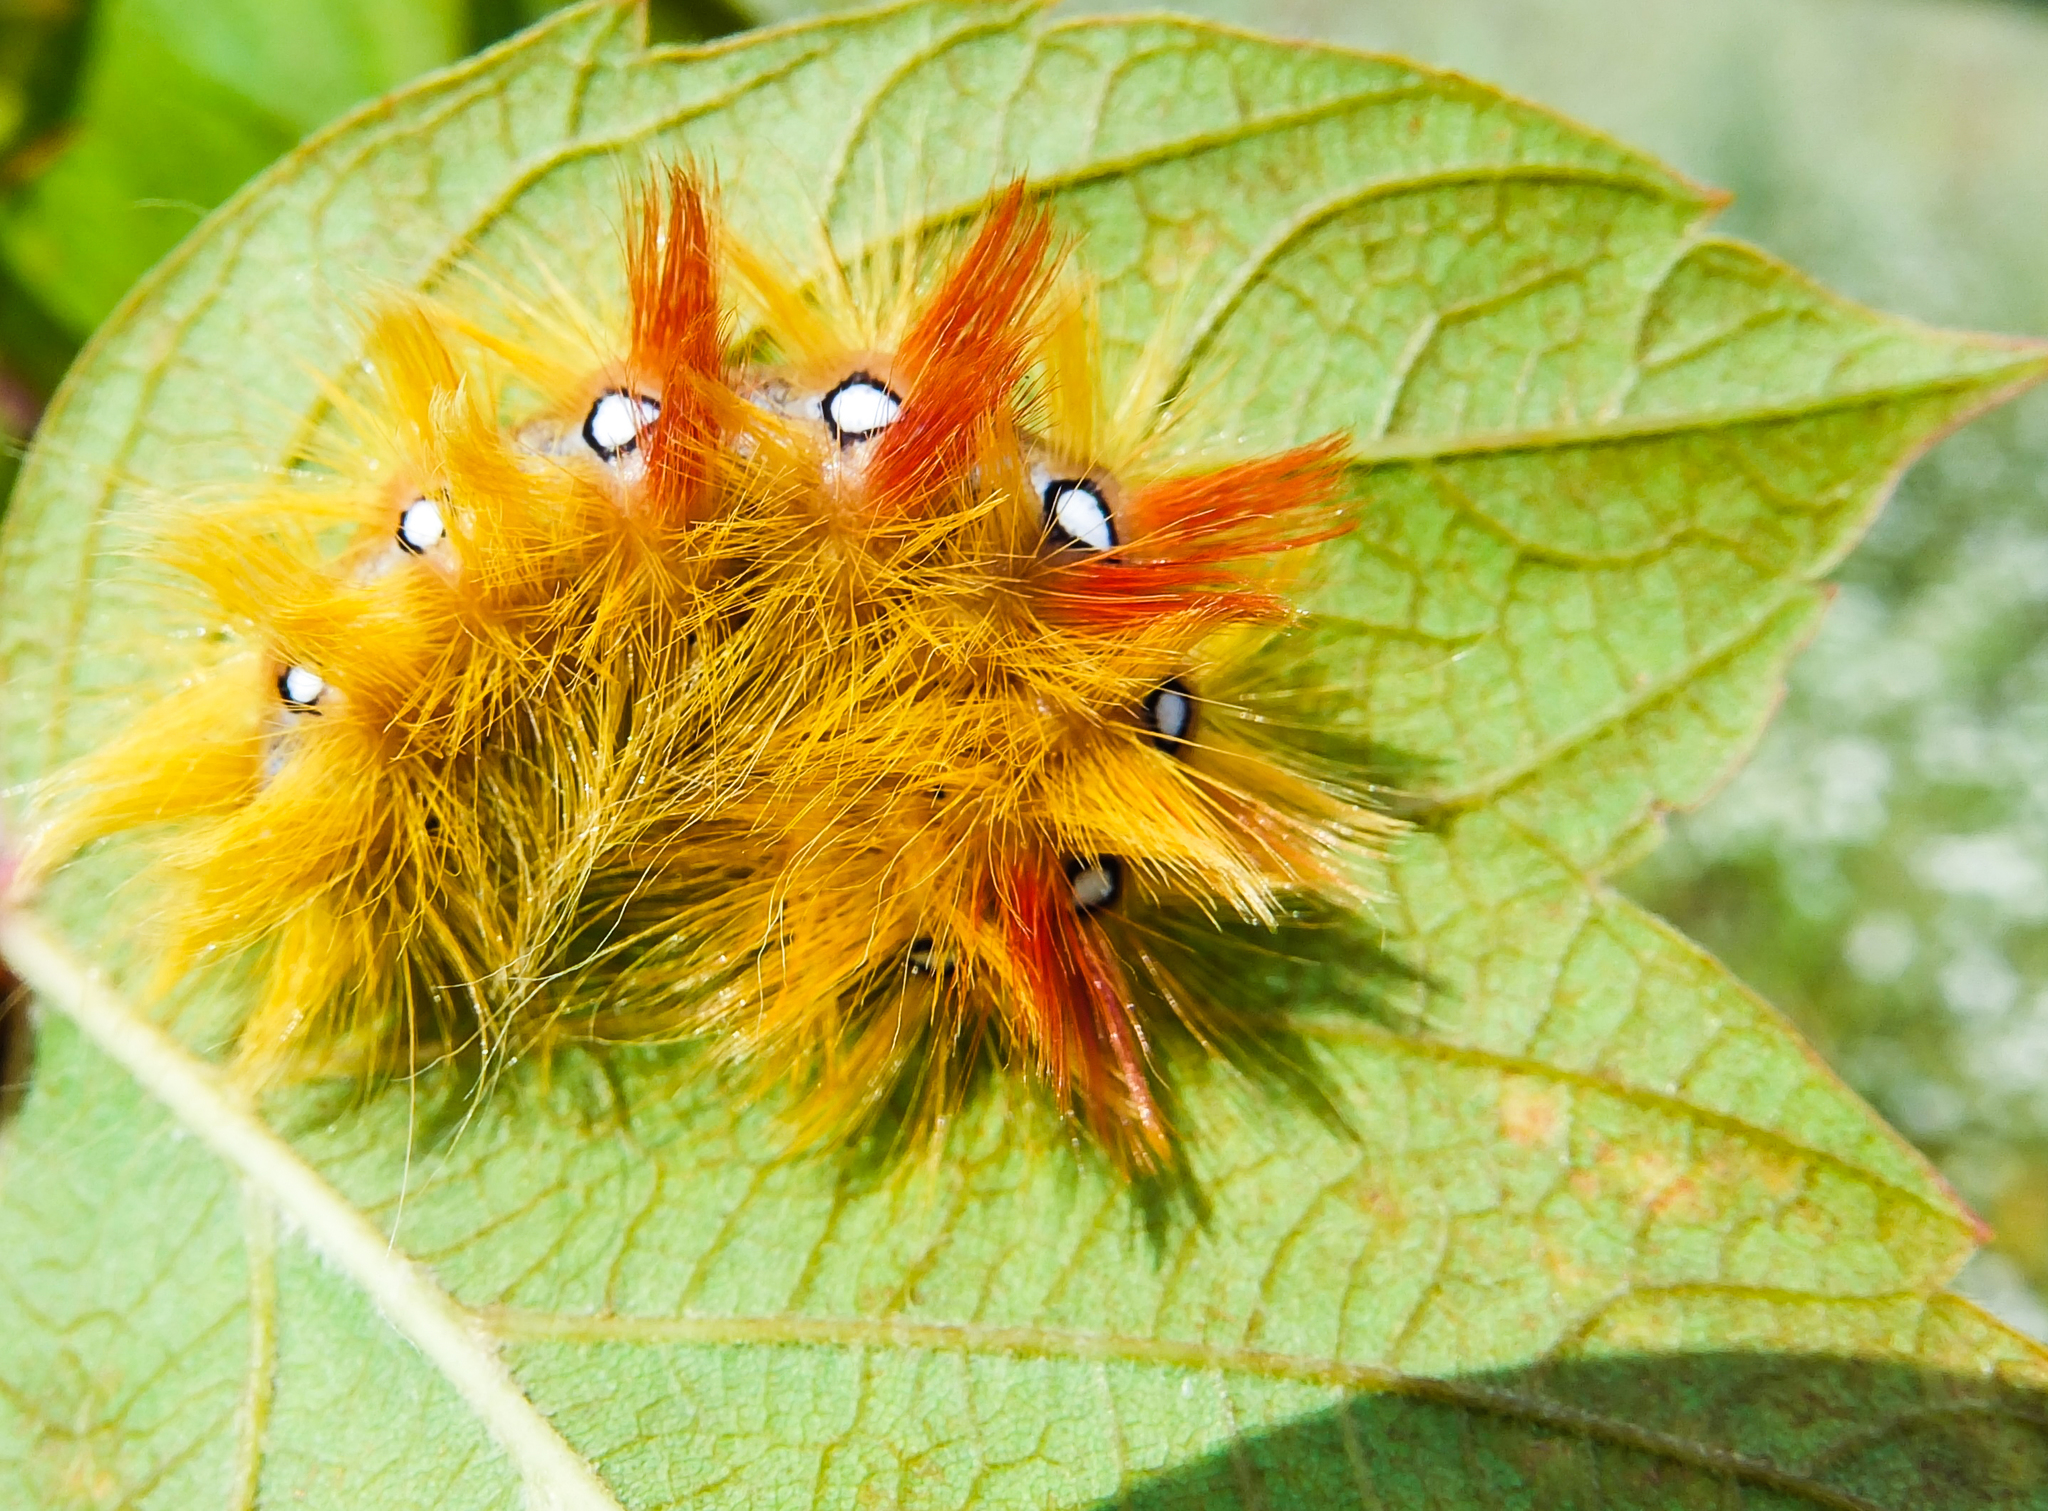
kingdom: Animalia
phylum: Arthropoda
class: Insecta
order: Lepidoptera
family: Noctuidae
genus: Acronicta
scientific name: Acronicta aceris
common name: Sycamore
